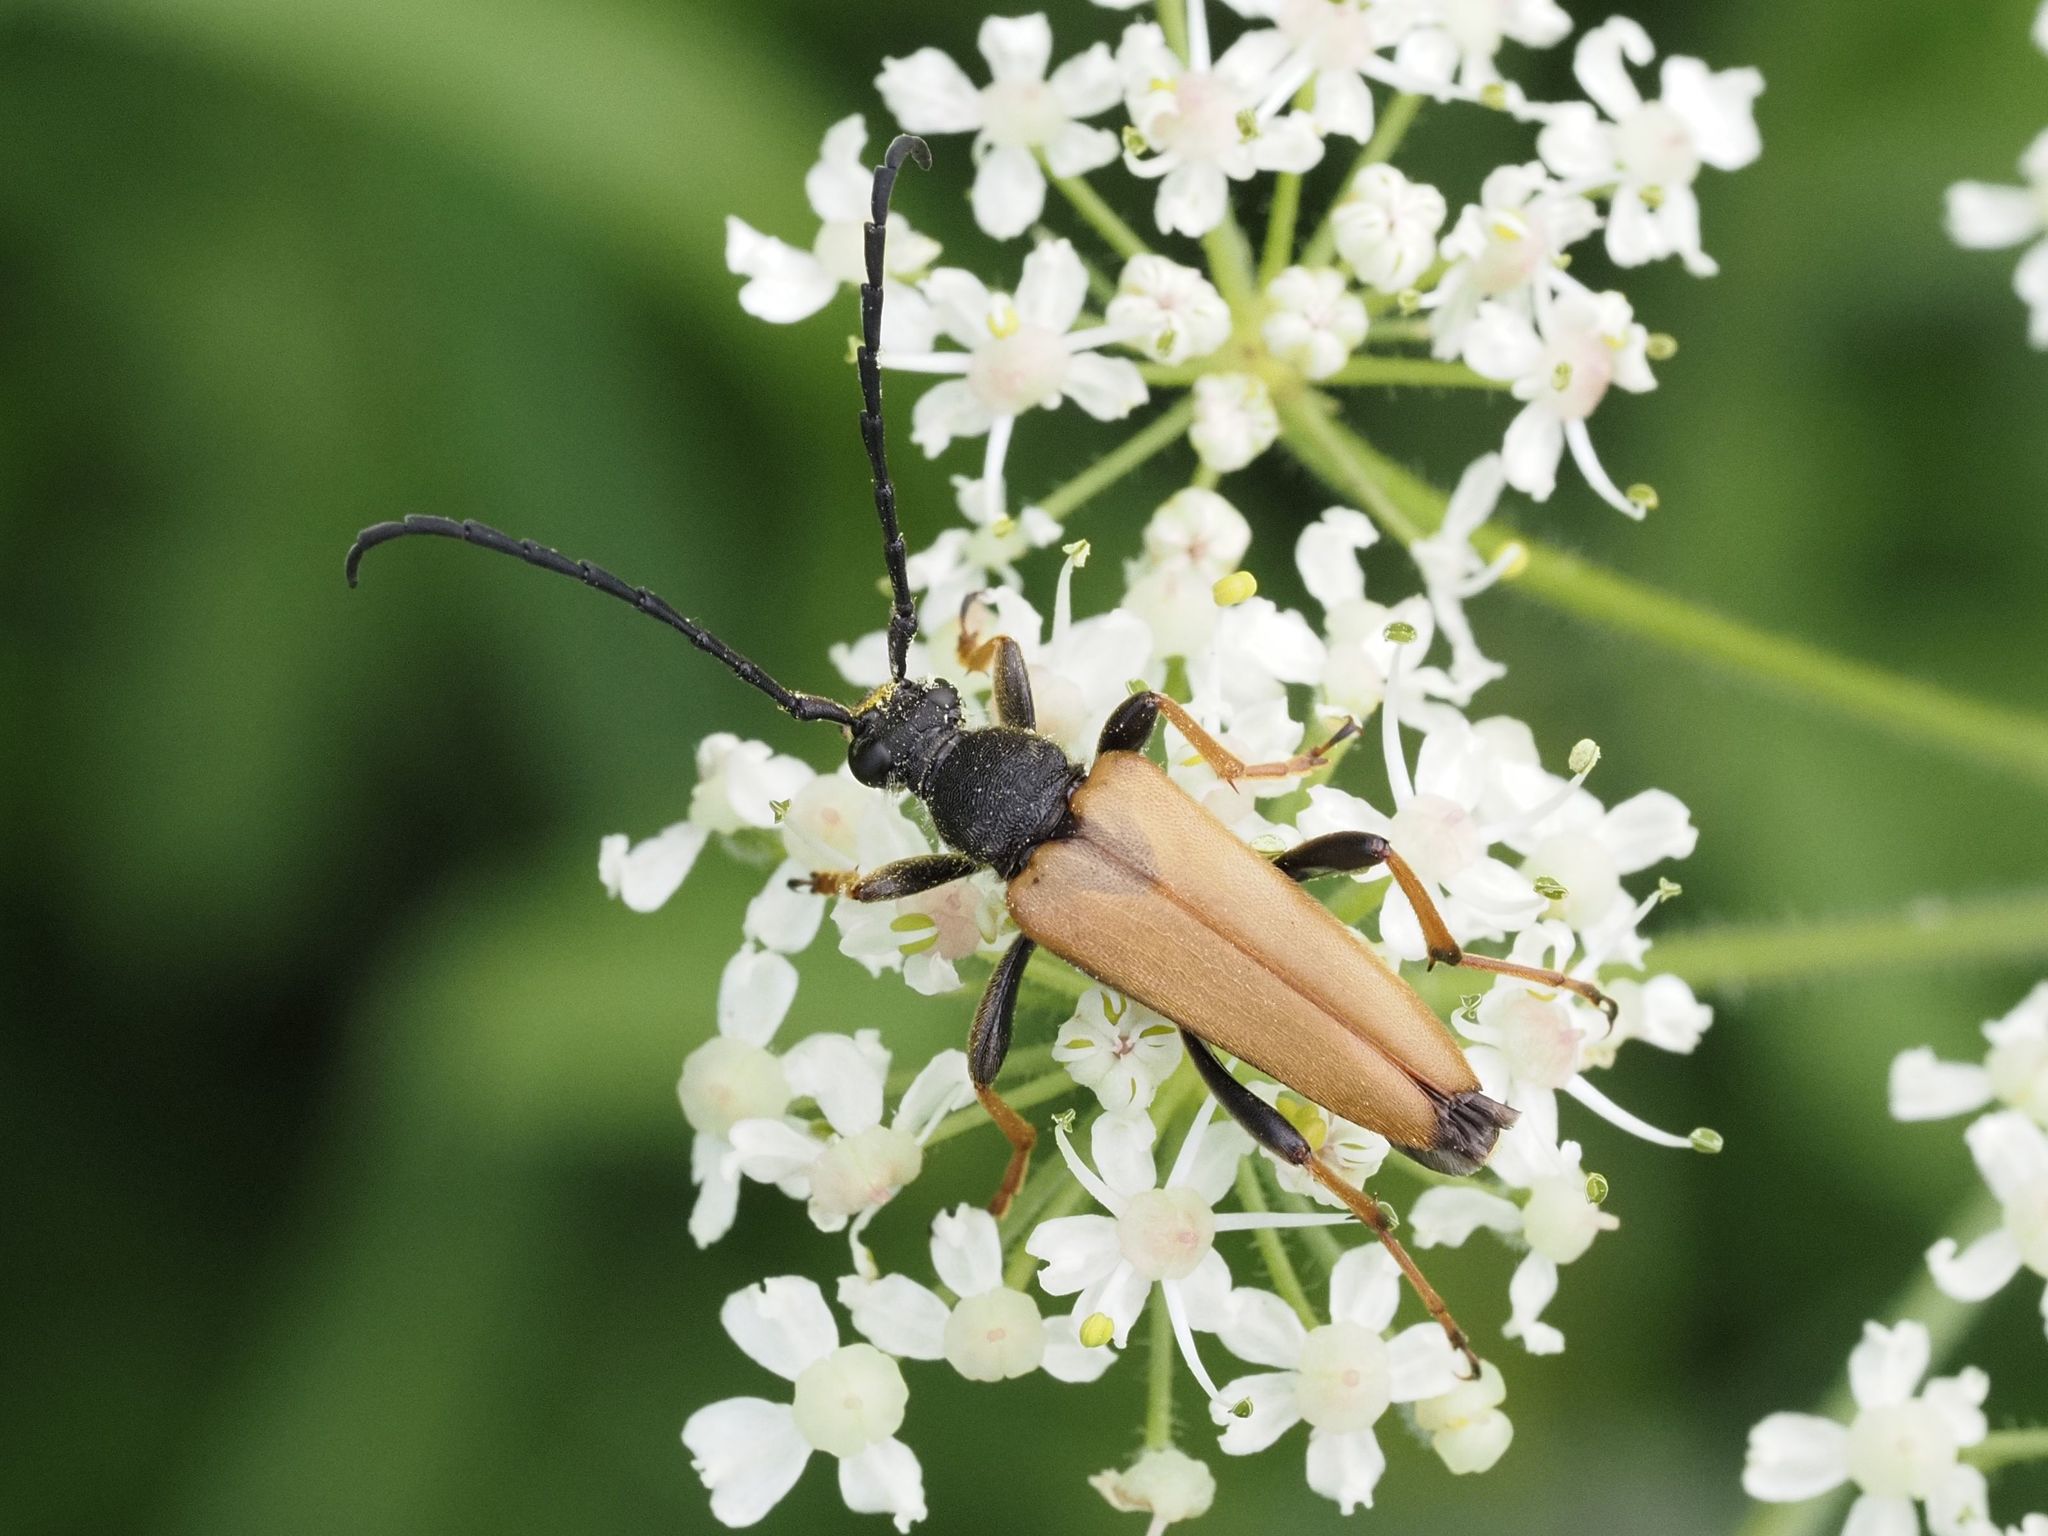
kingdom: Animalia
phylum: Arthropoda
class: Insecta
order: Coleoptera
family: Cerambycidae
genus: Stictoleptura
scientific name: Stictoleptura rubra
